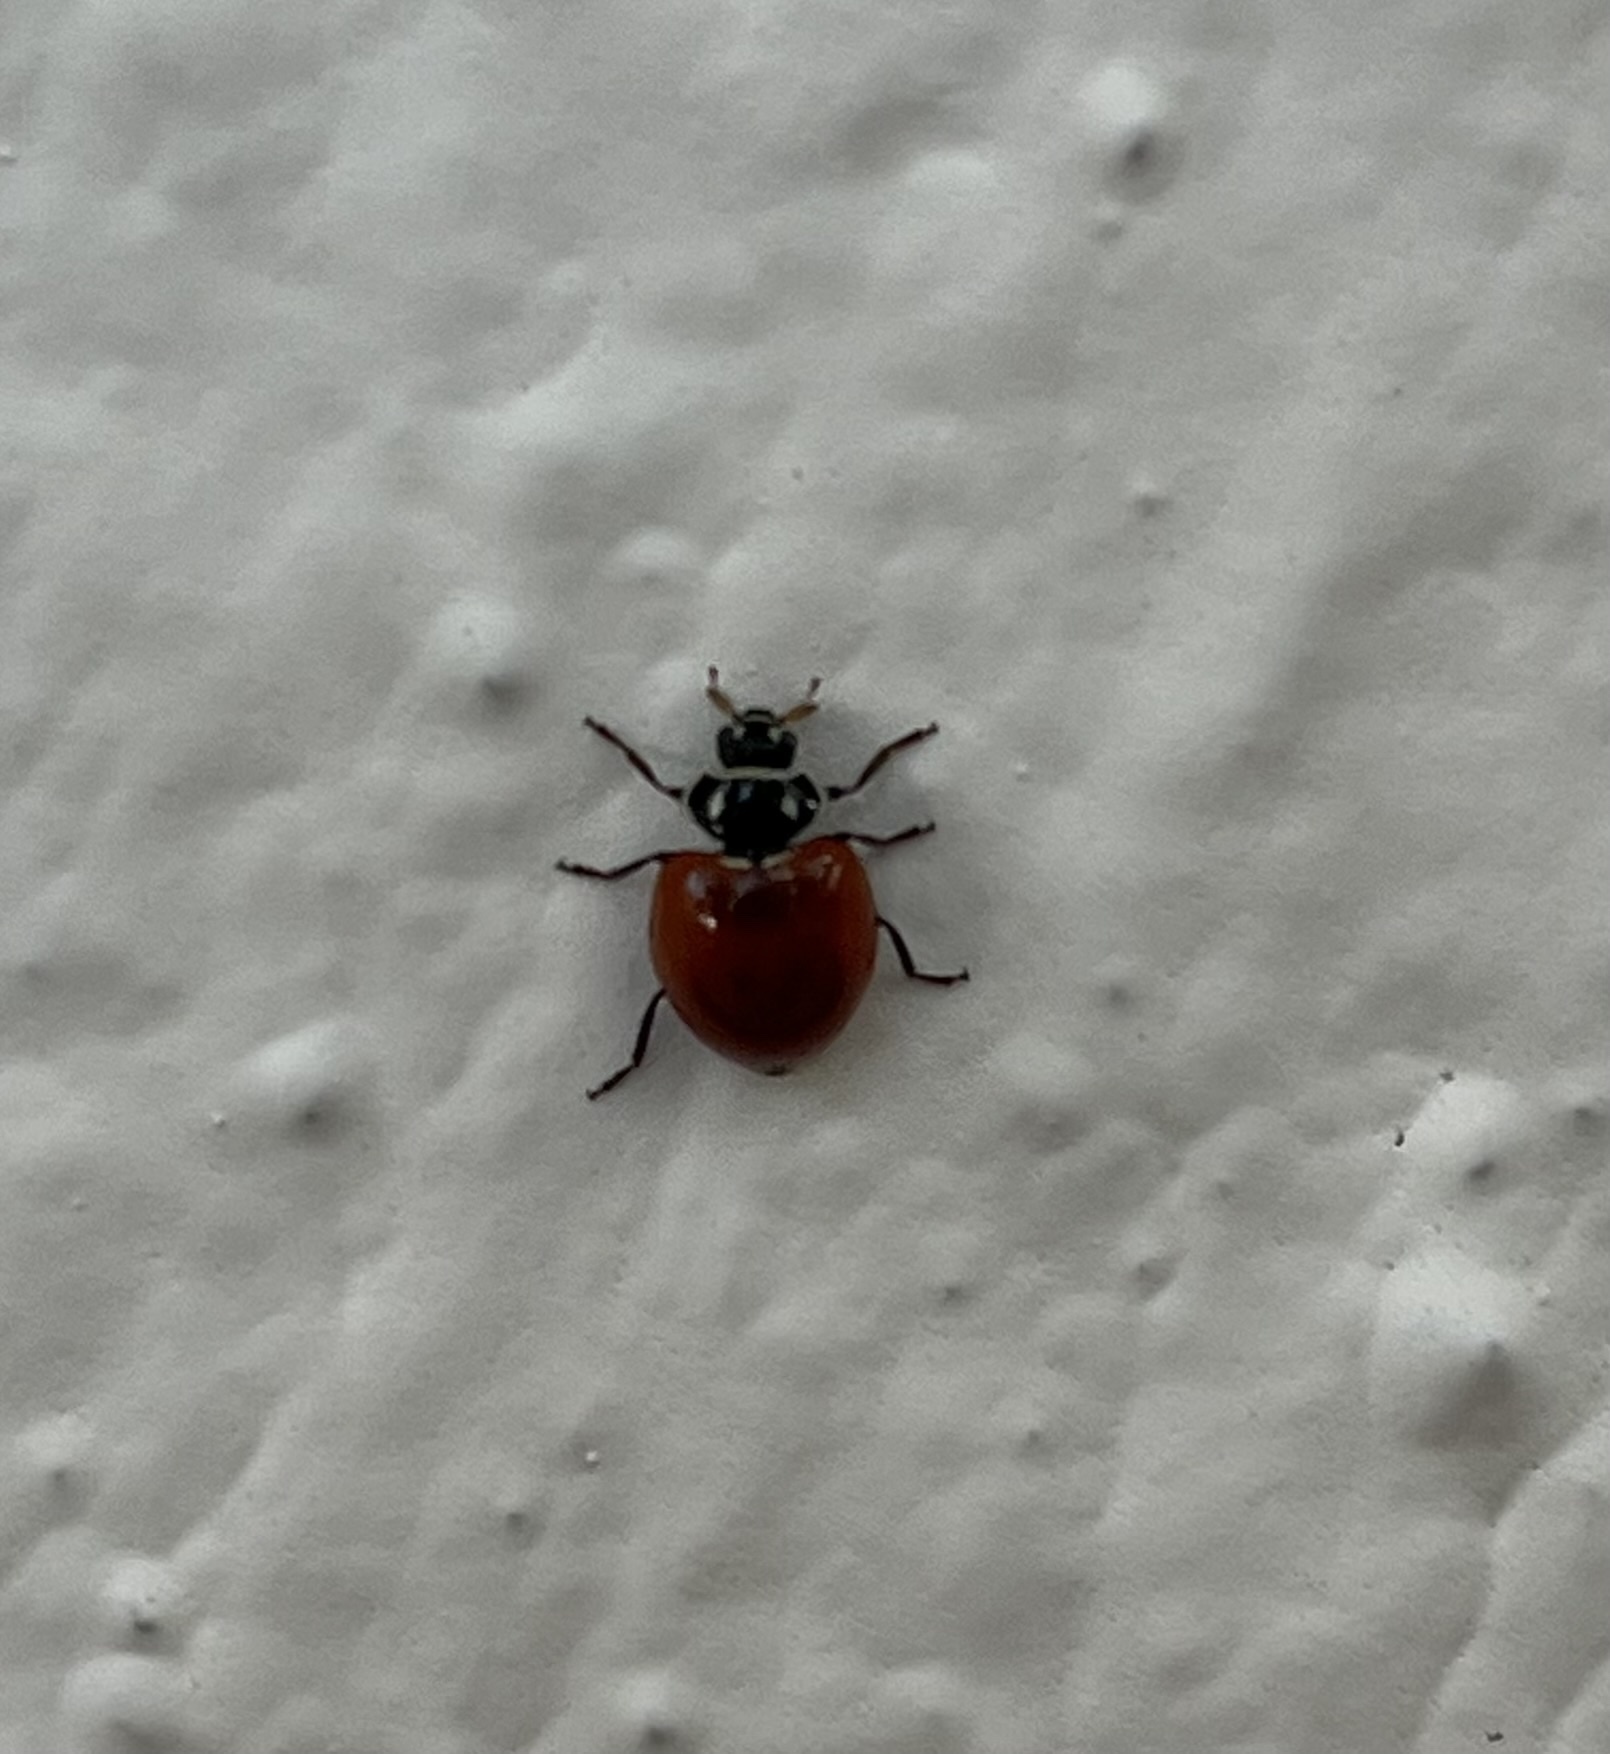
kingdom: Animalia
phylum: Arthropoda
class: Insecta
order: Coleoptera
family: Coccinellidae
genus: Cycloneda
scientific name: Cycloneda emarginata
